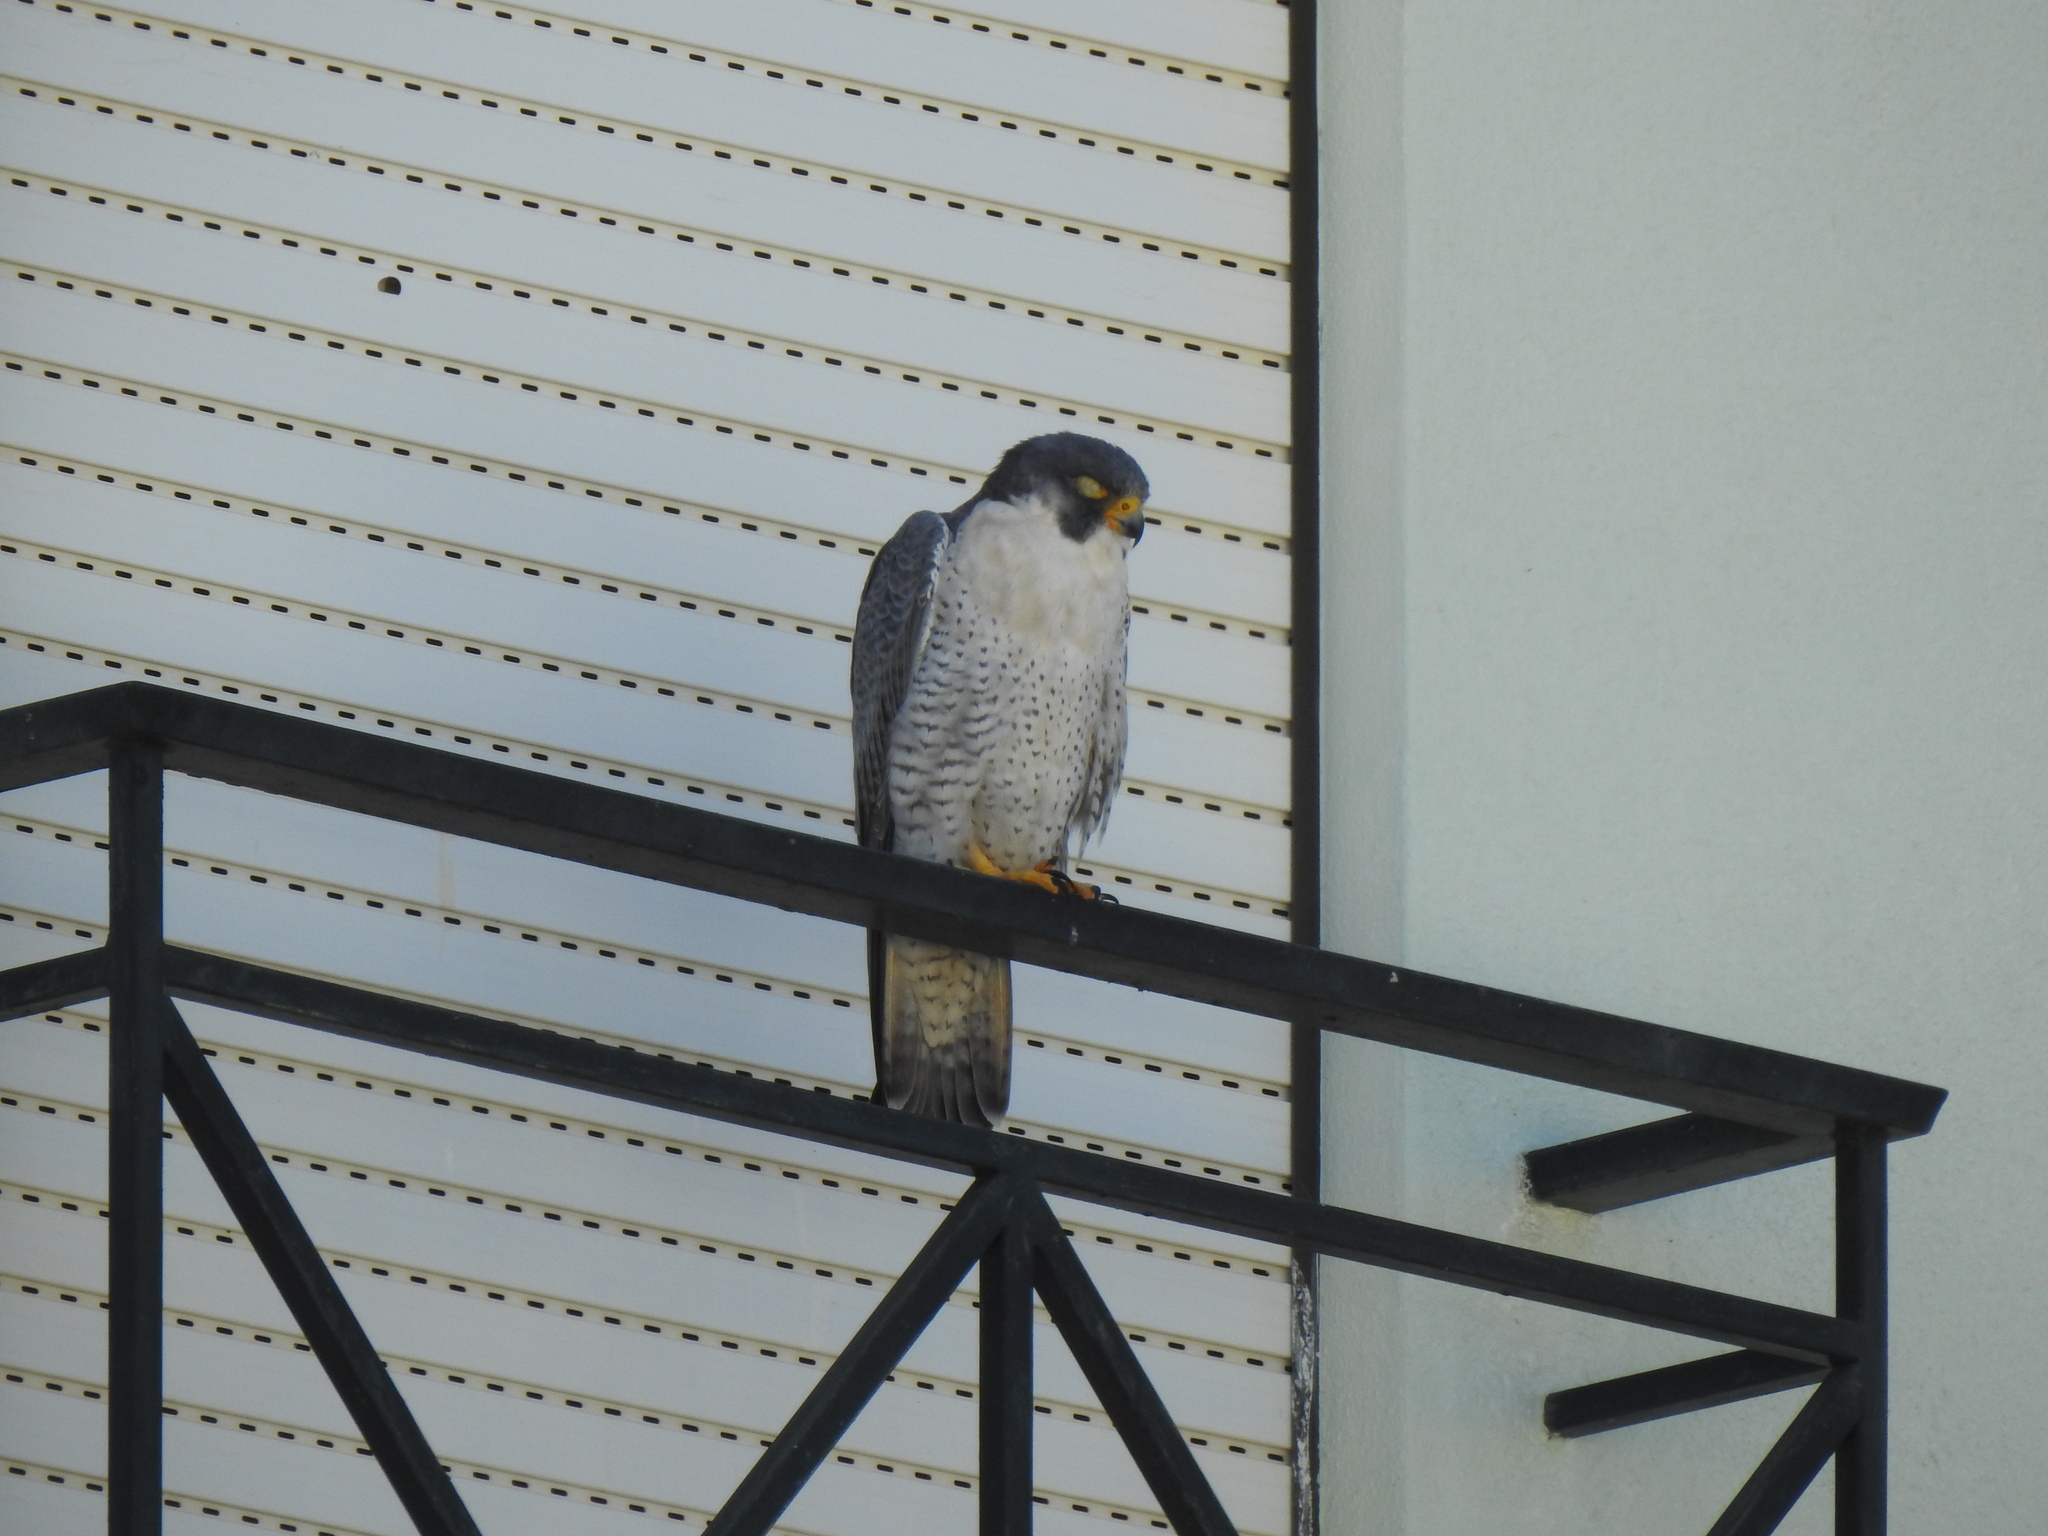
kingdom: Animalia
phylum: Chordata
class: Aves
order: Falconiformes
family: Falconidae
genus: Falco
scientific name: Falco peregrinus
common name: Peregrine falcon
